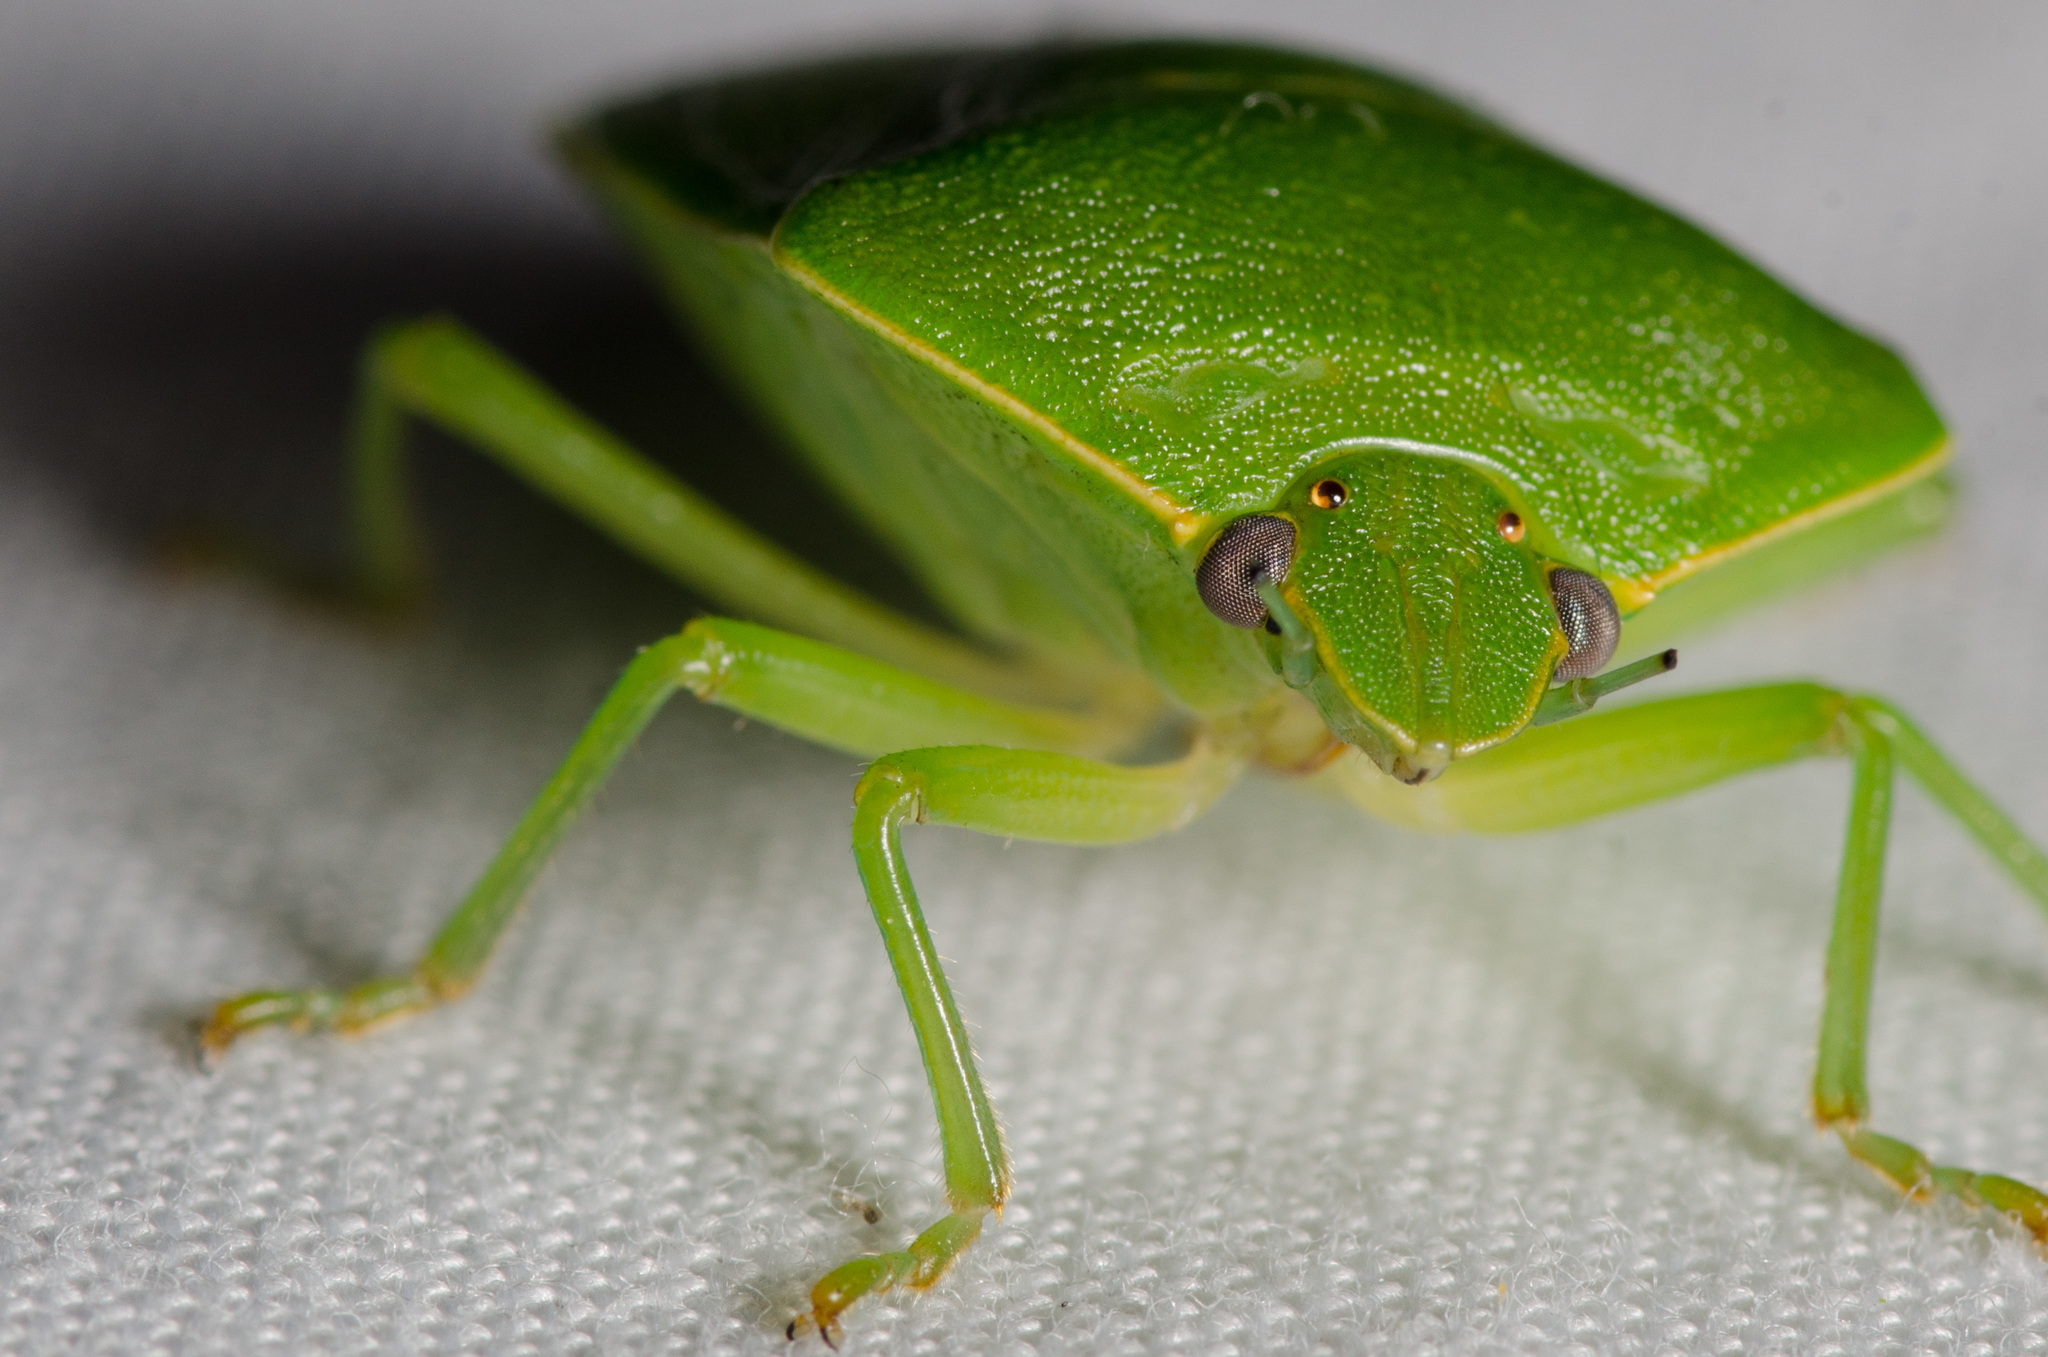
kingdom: Animalia
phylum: Arthropoda
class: Insecta
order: Hemiptera
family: Pentatomidae
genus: Chinavia
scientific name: Chinavia hilaris
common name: Green stink bug
